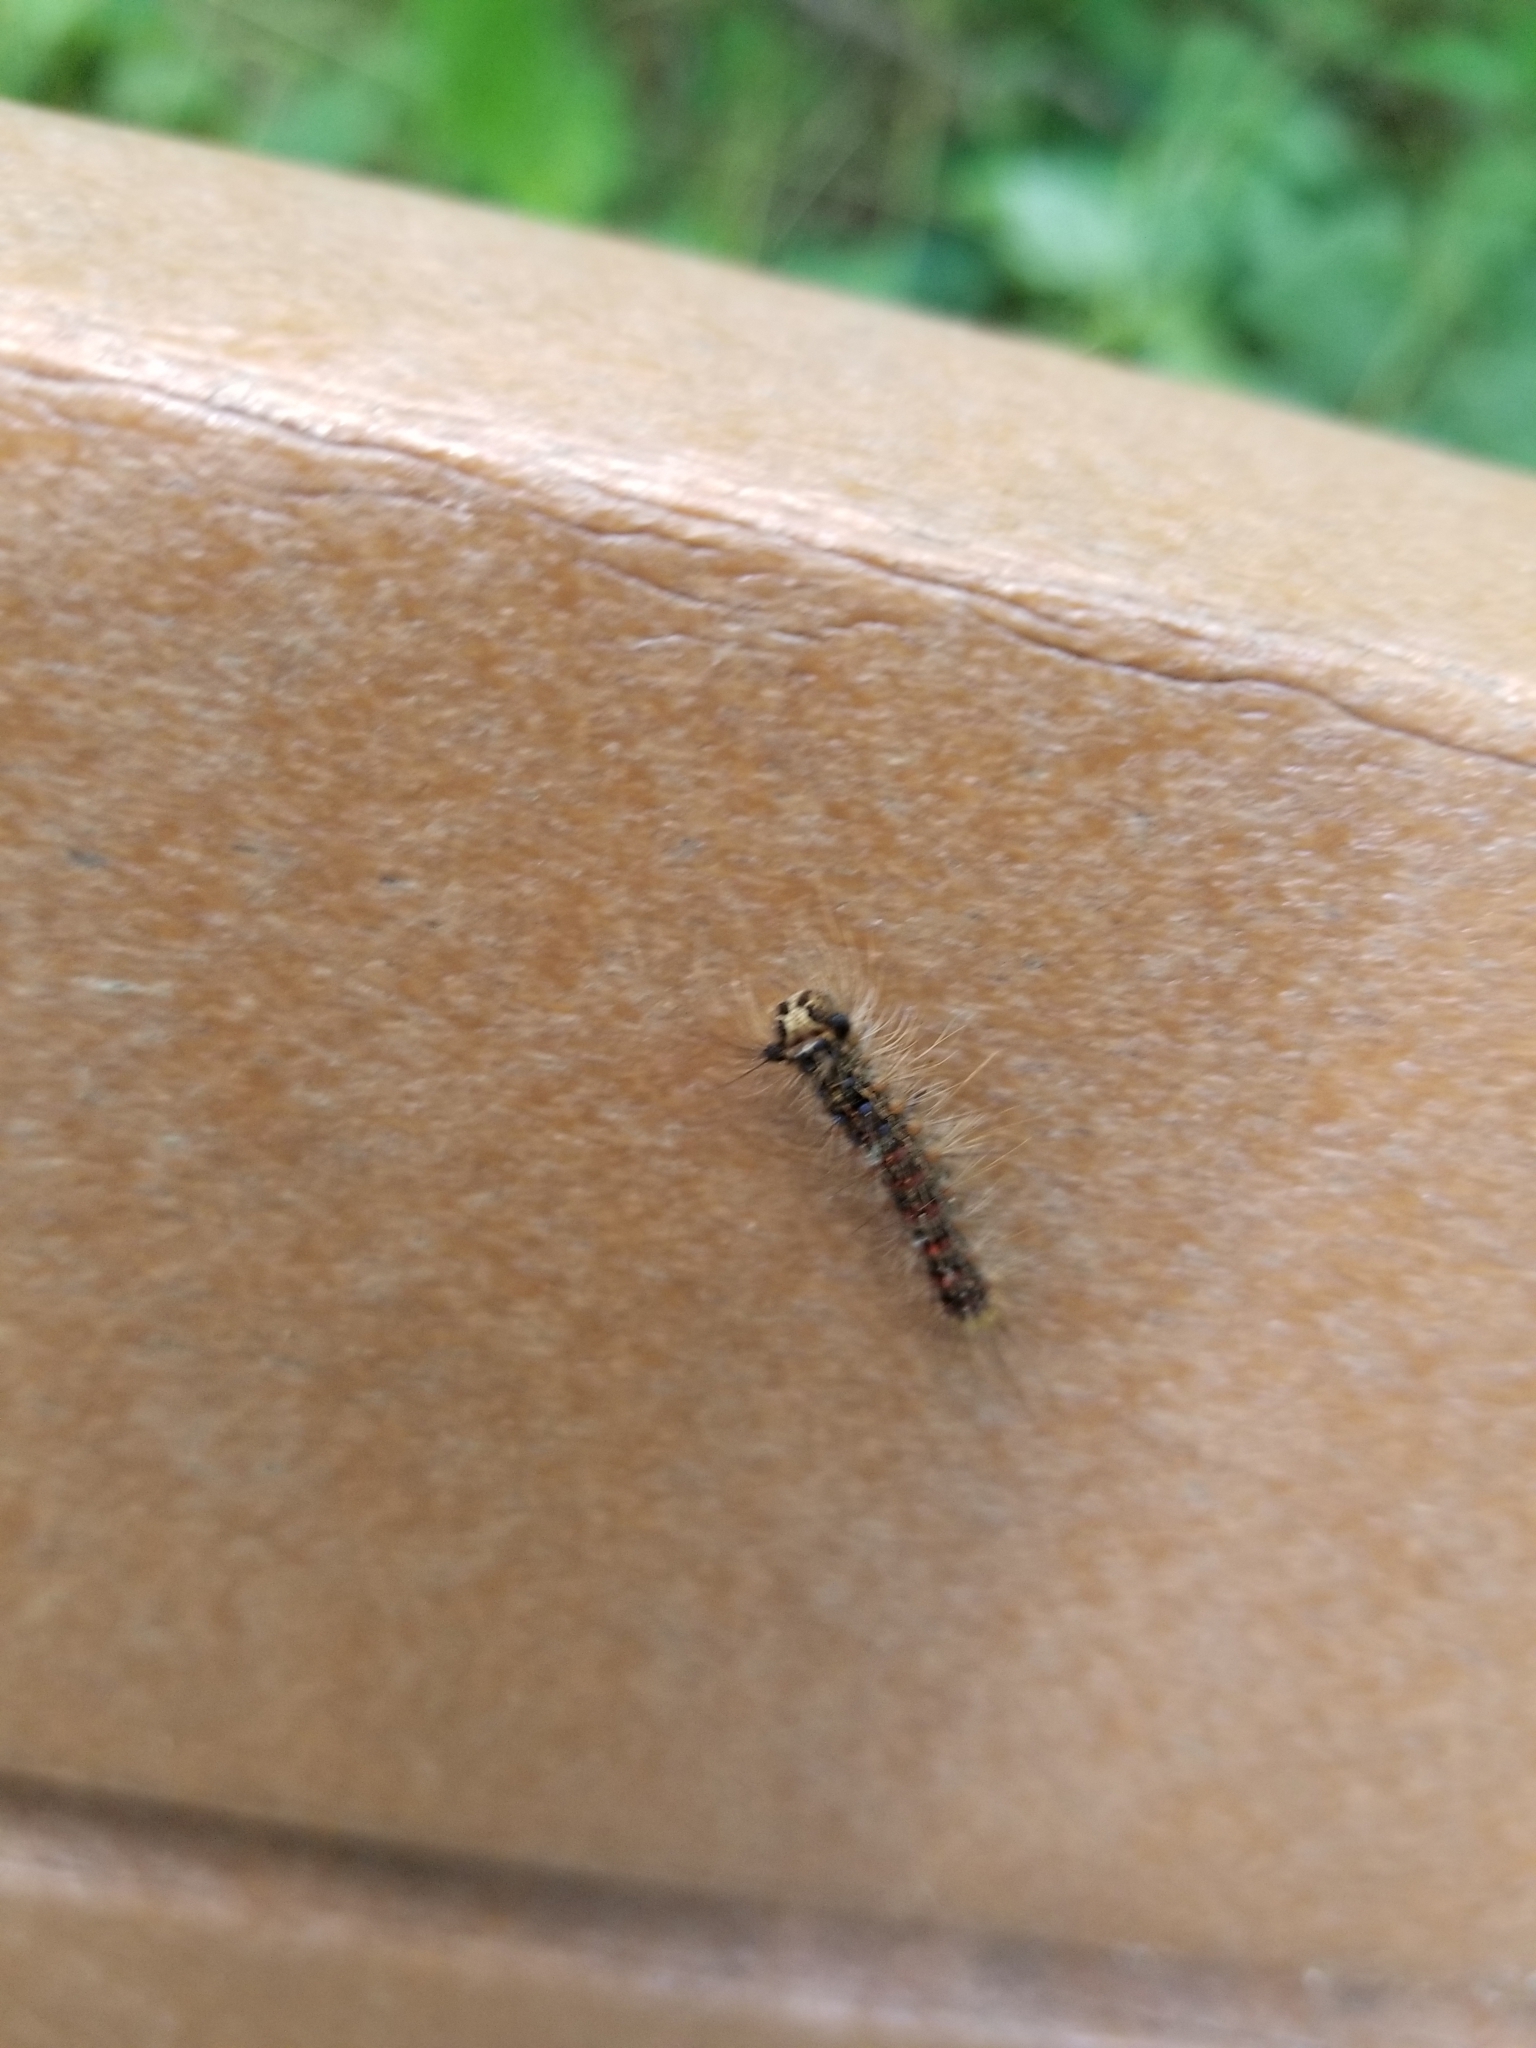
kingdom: Animalia
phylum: Arthropoda
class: Insecta
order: Lepidoptera
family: Erebidae
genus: Lymantria
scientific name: Lymantria dispar
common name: Gypsy moth
